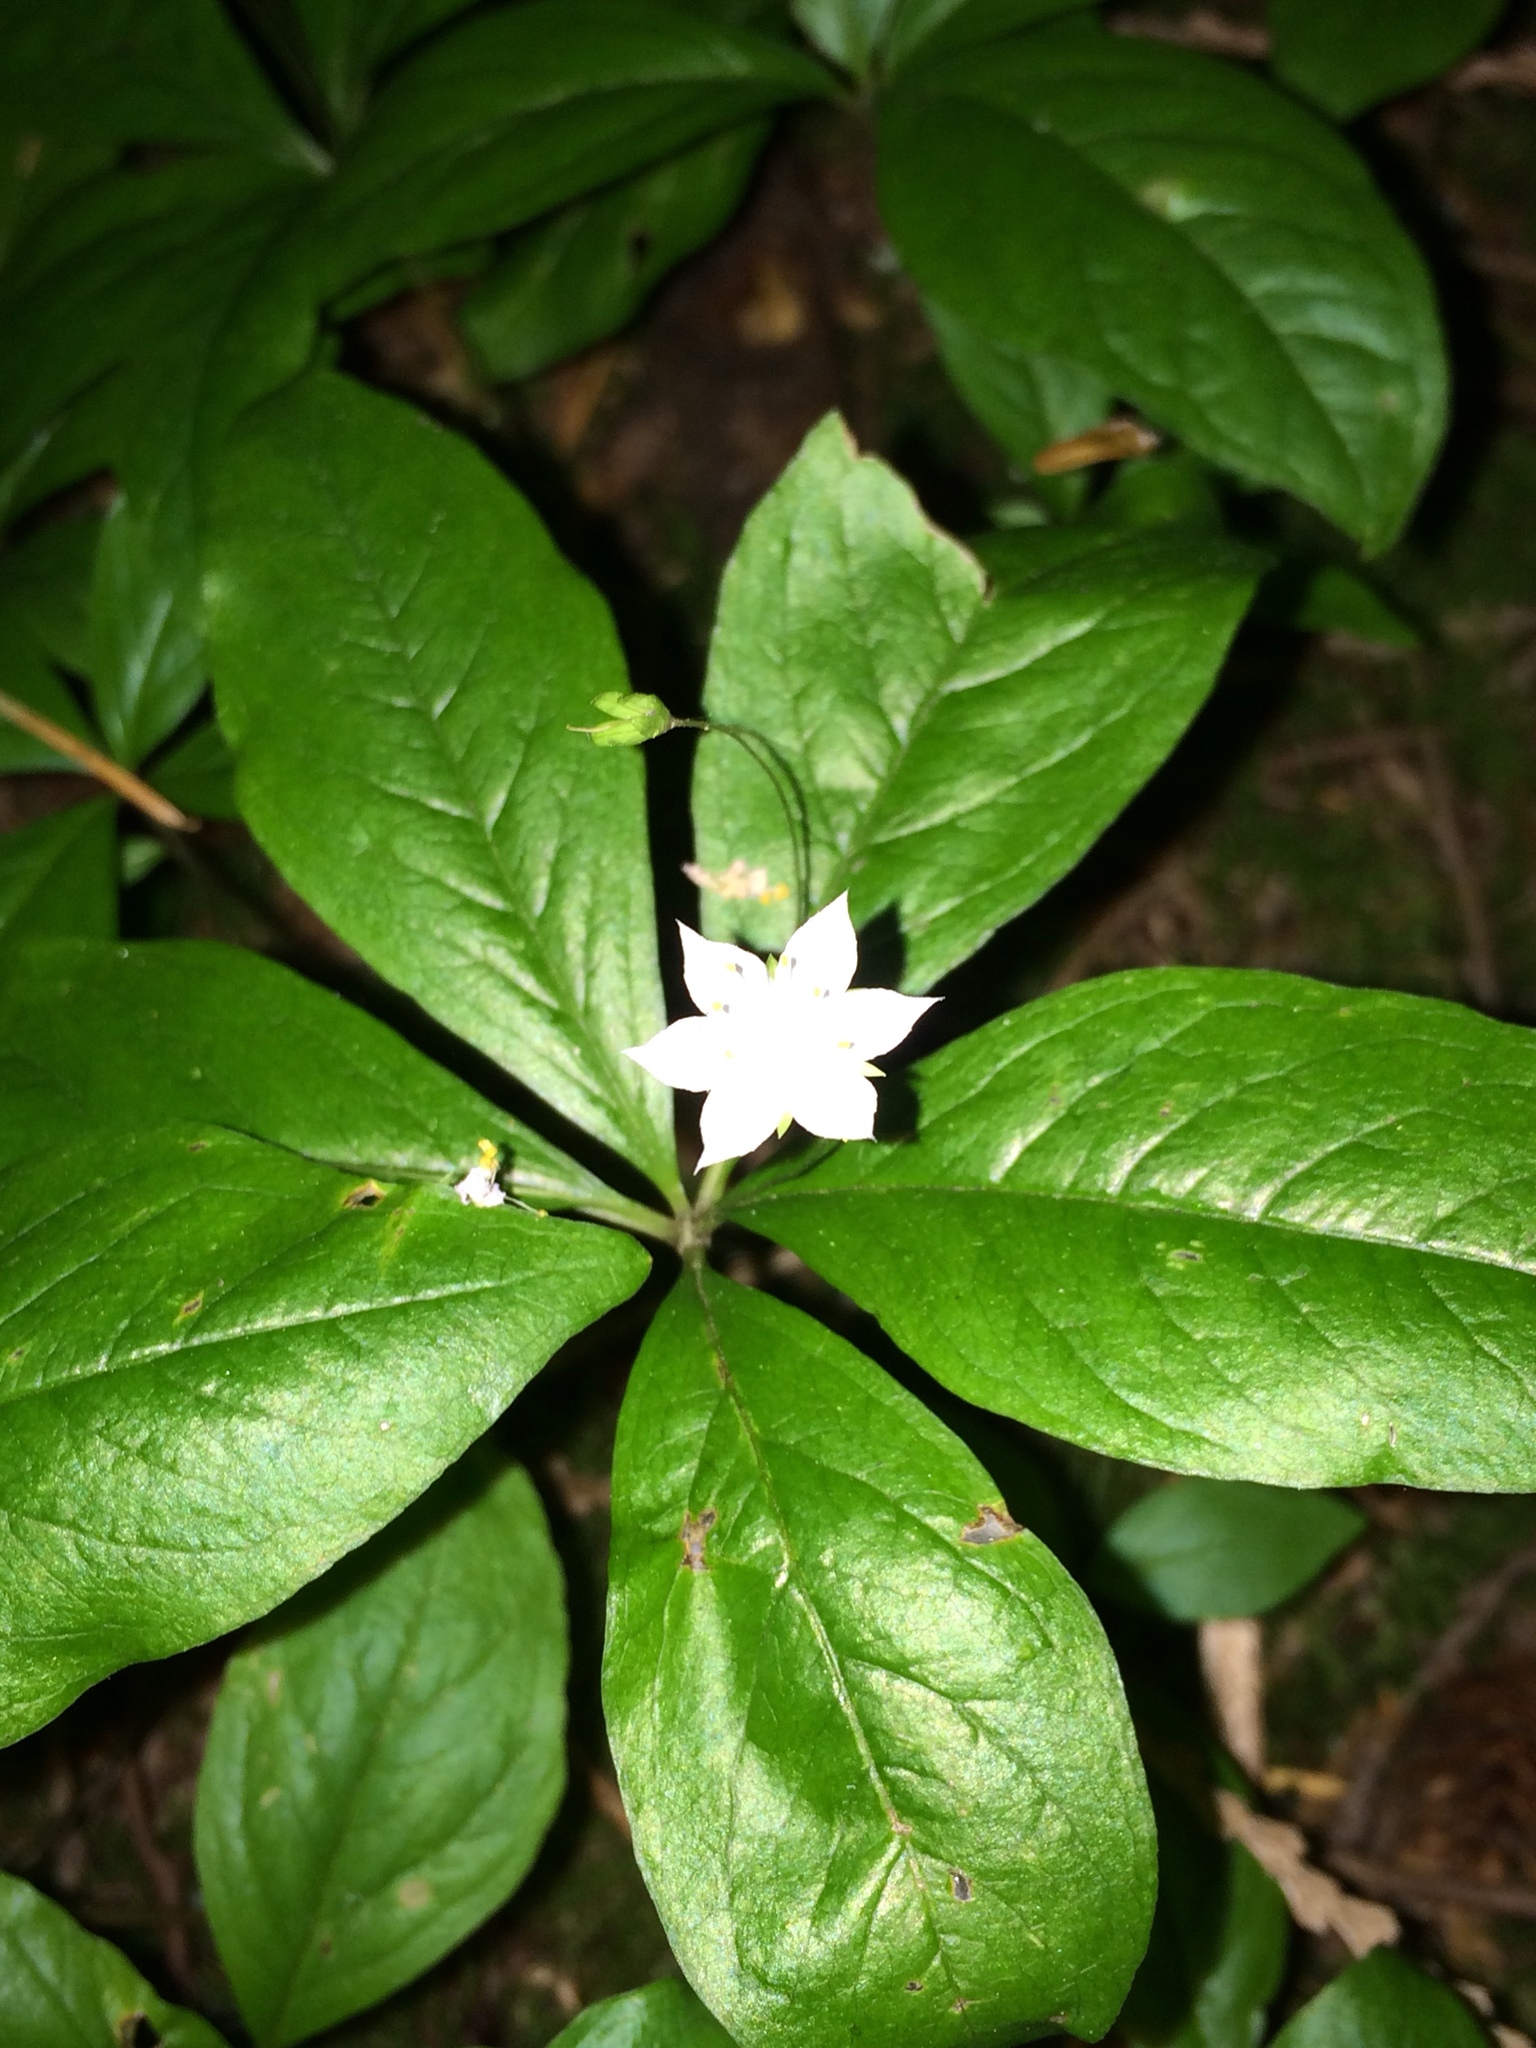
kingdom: Plantae
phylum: Tracheophyta
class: Magnoliopsida
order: Ericales
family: Primulaceae
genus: Lysimachia
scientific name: Lysimachia latifolia
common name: Pacific starflower
